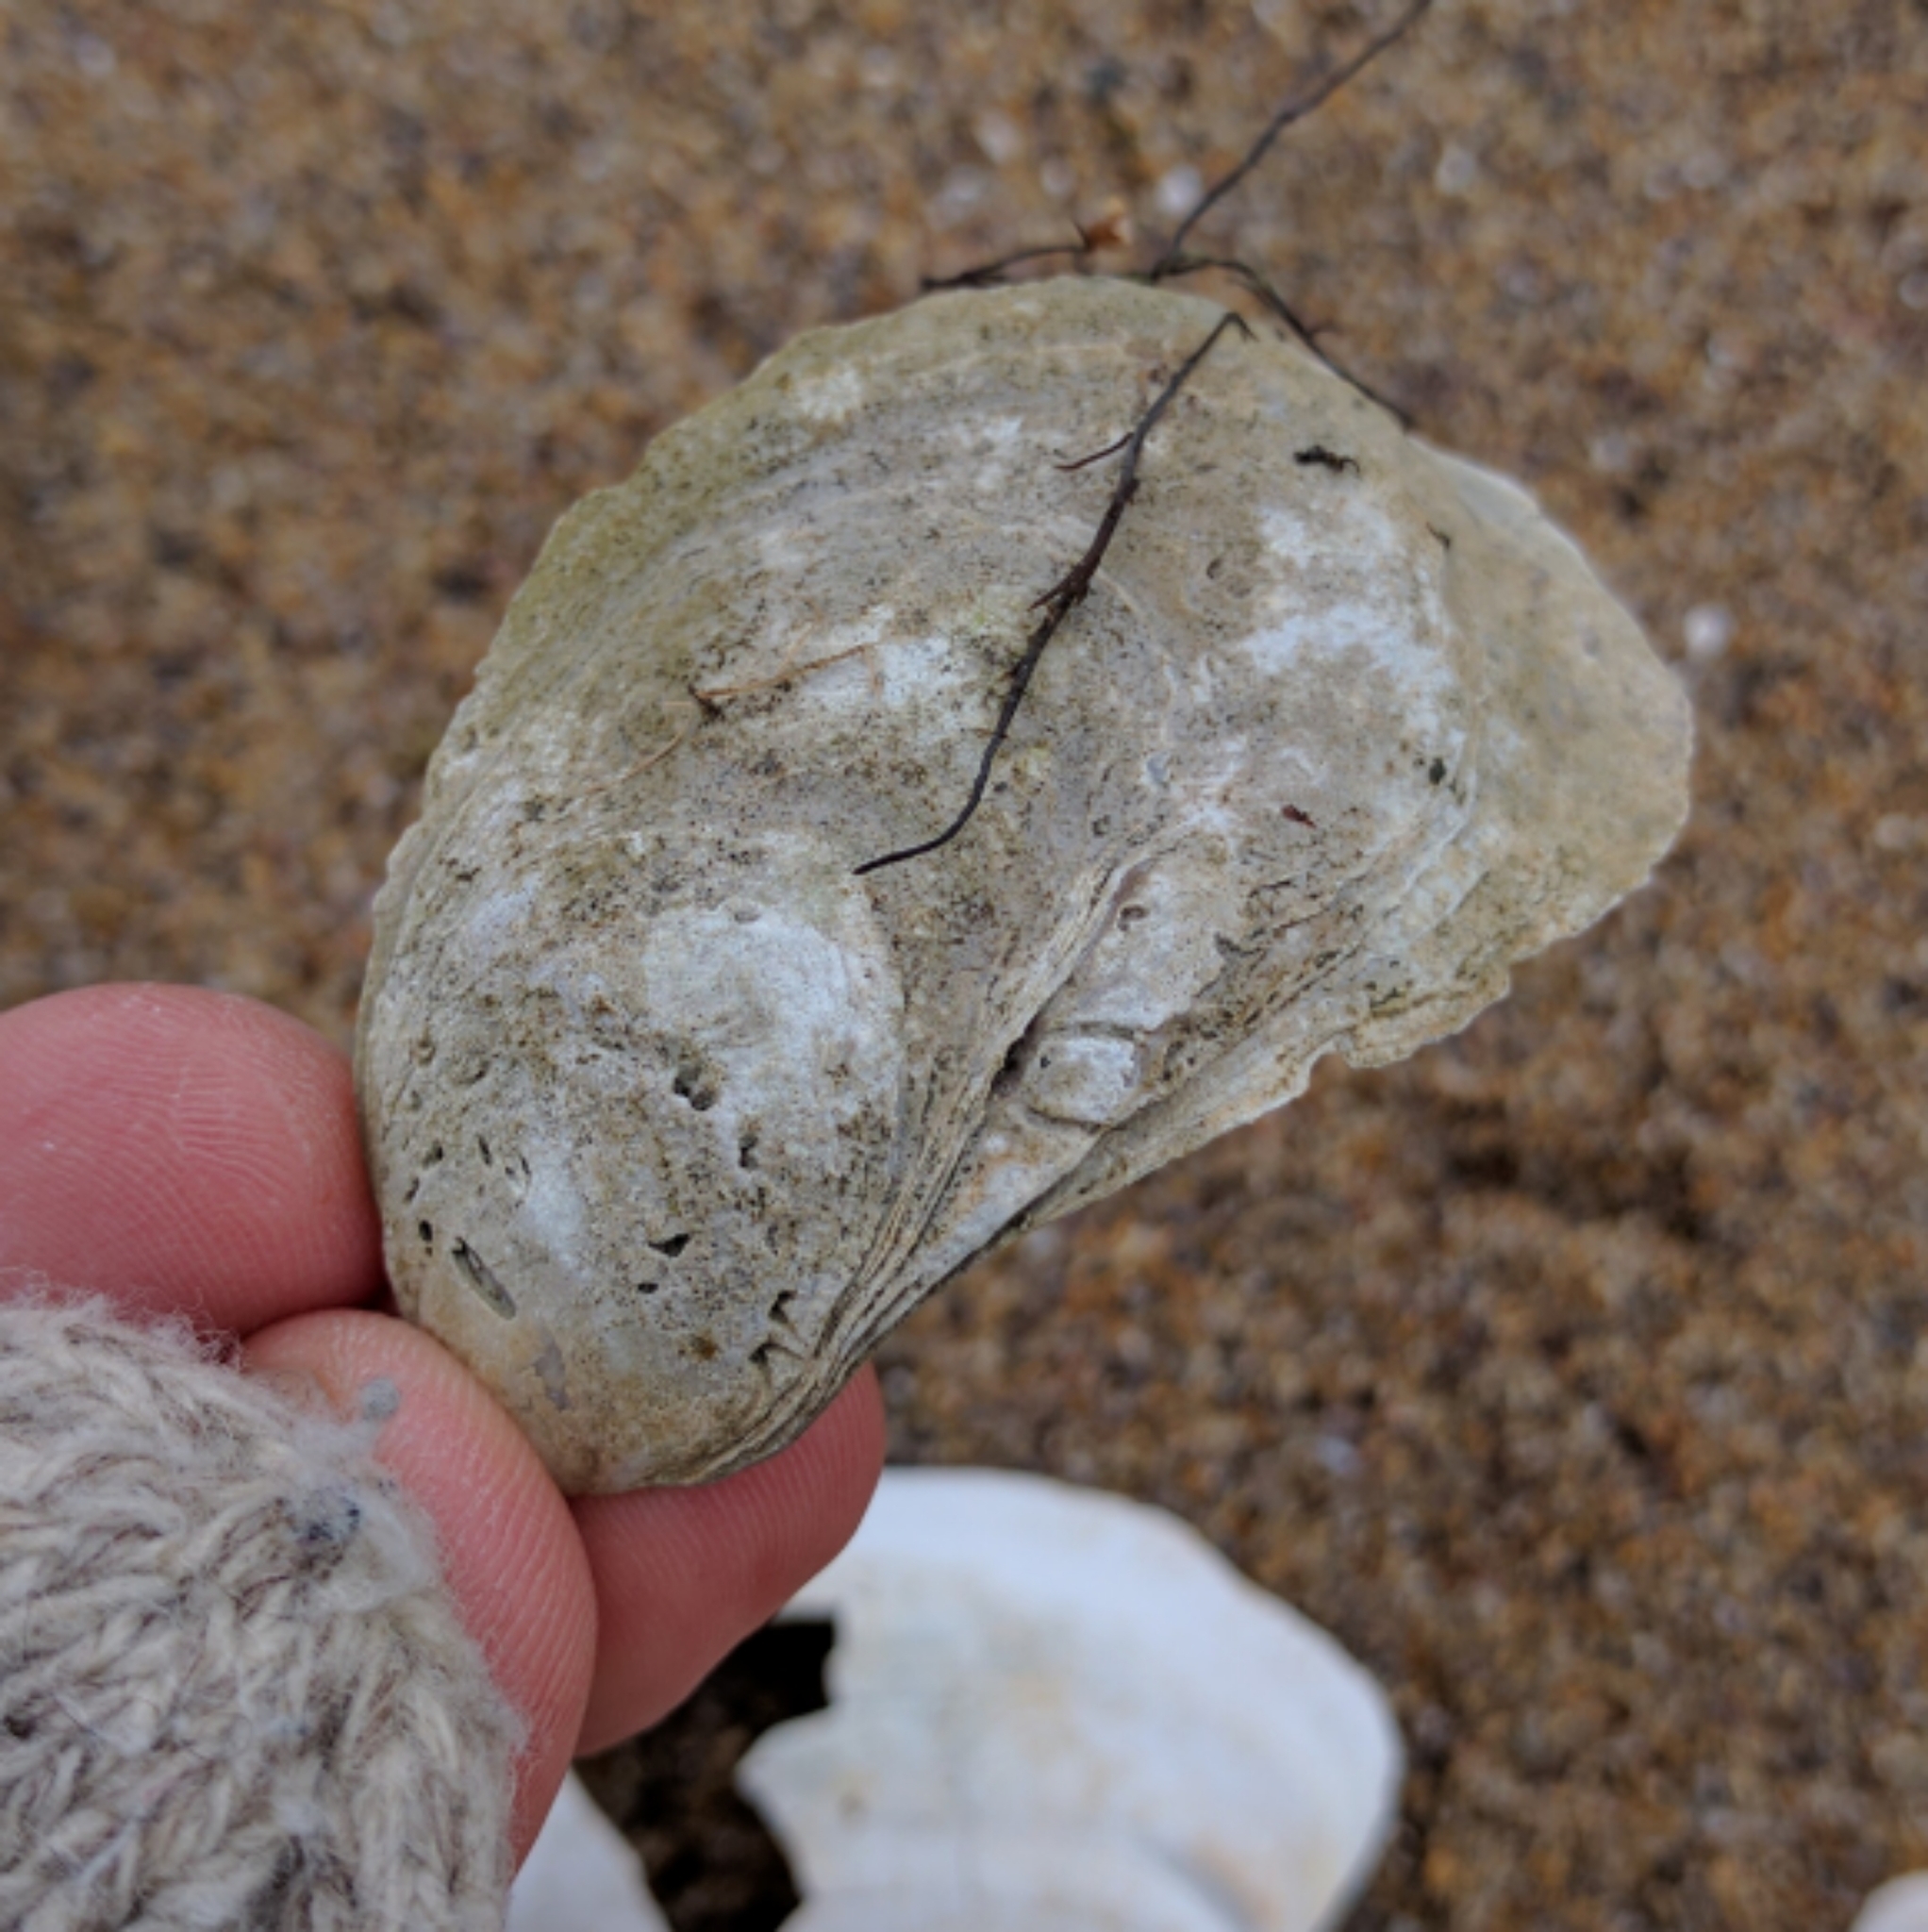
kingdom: Animalia
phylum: Mollusca
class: Bivalvia
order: Ostreida
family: Ostreidae
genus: Crassostrea
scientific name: Crassostrea virginica
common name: American oyster
